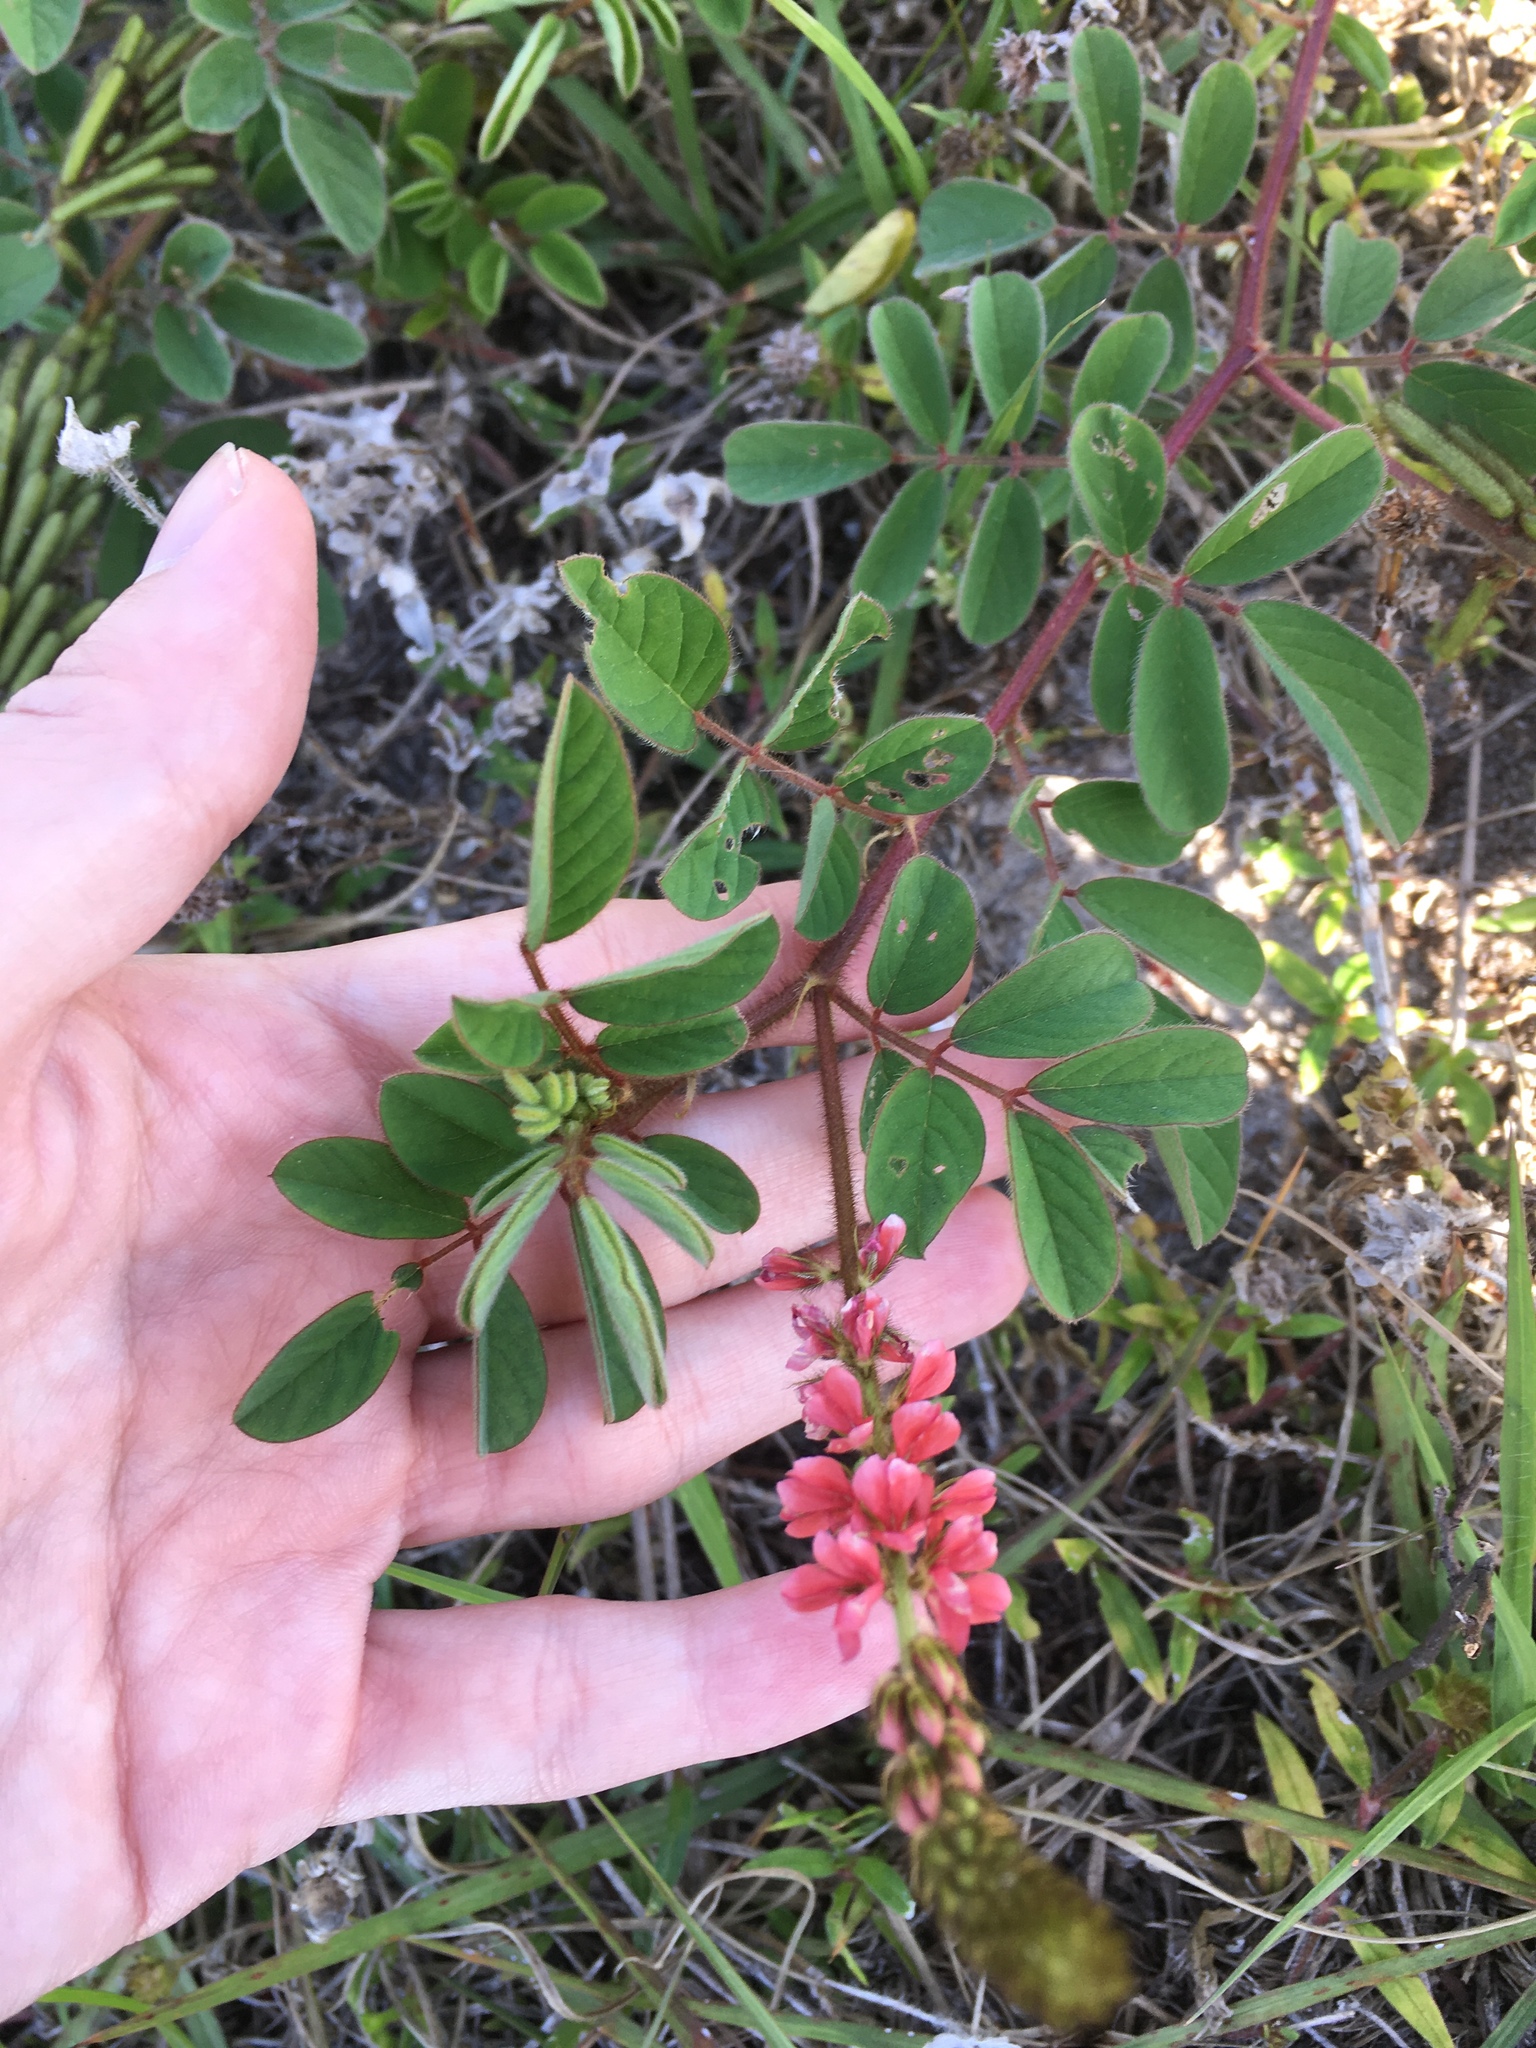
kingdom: Plantae
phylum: Tracheophyta
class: Magnoliopsida
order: Fabales
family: Fabaceae
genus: Indigofera
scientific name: Indigofera hirsuta
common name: Hairy indigo
